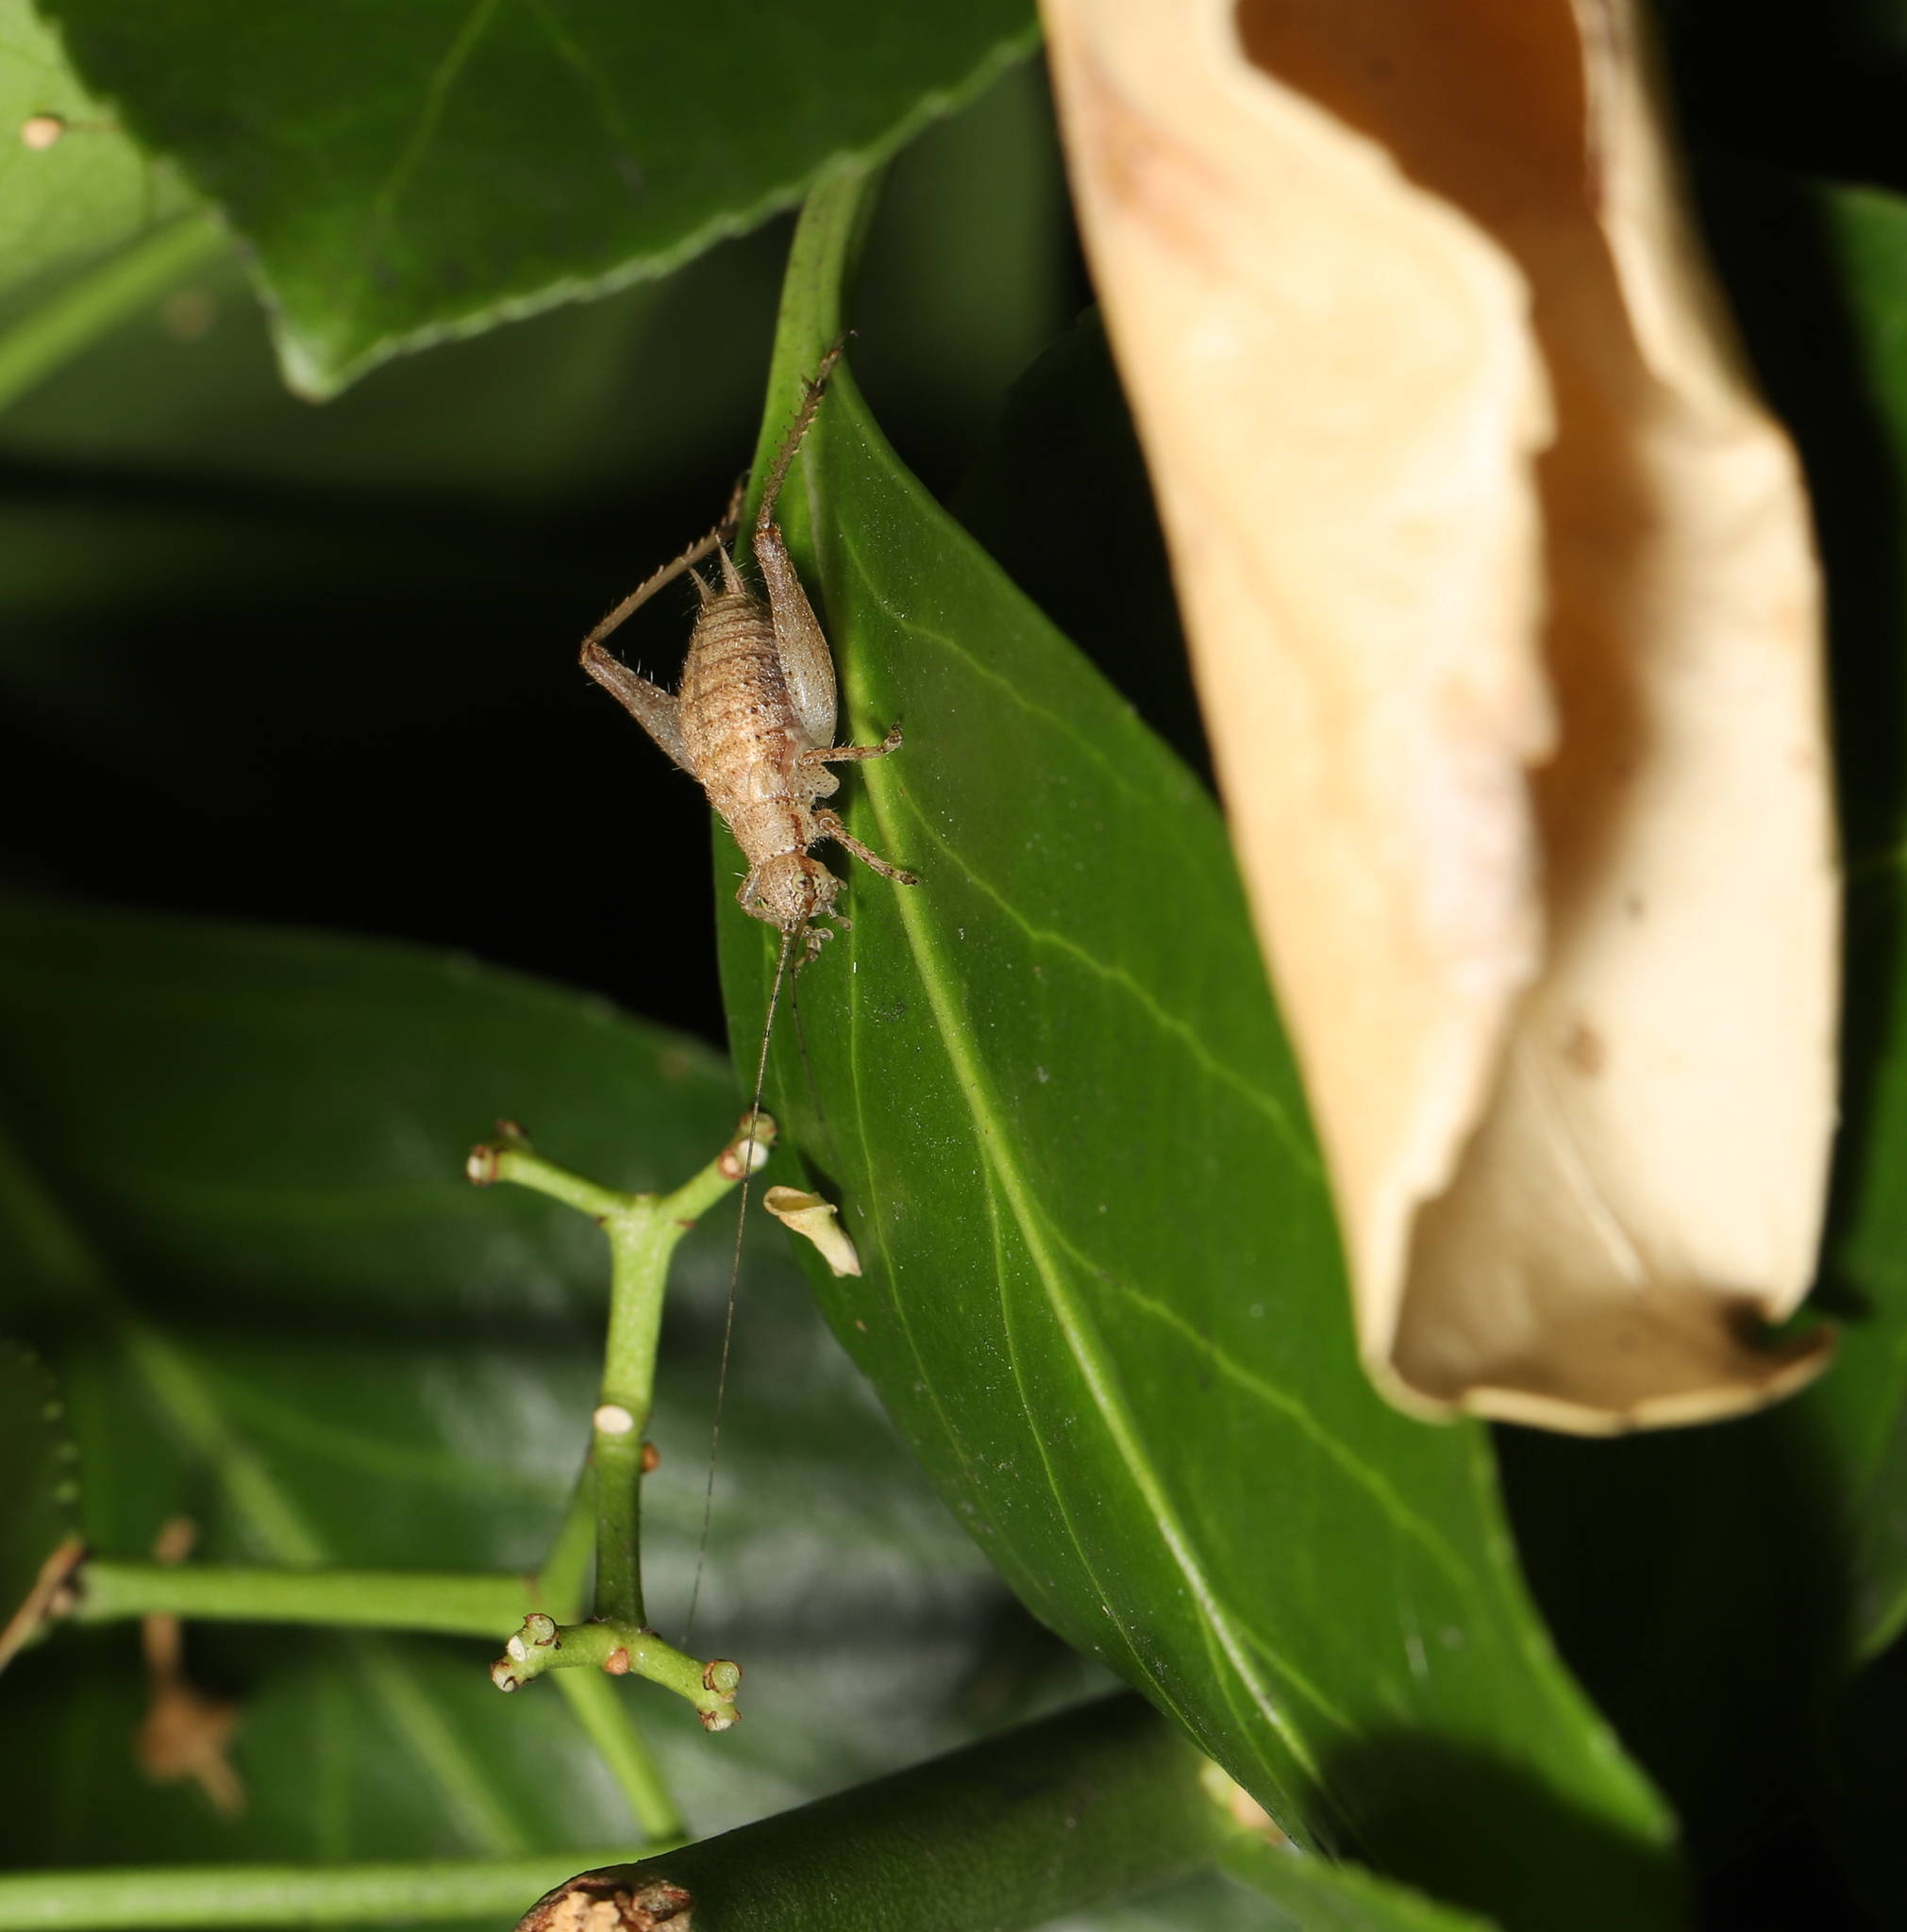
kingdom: Animalia
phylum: Arthropoda
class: Insecta
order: Orthoptera
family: Gryllidae
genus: Hapithus
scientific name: Hapithus agitator
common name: Restless bush cricket
